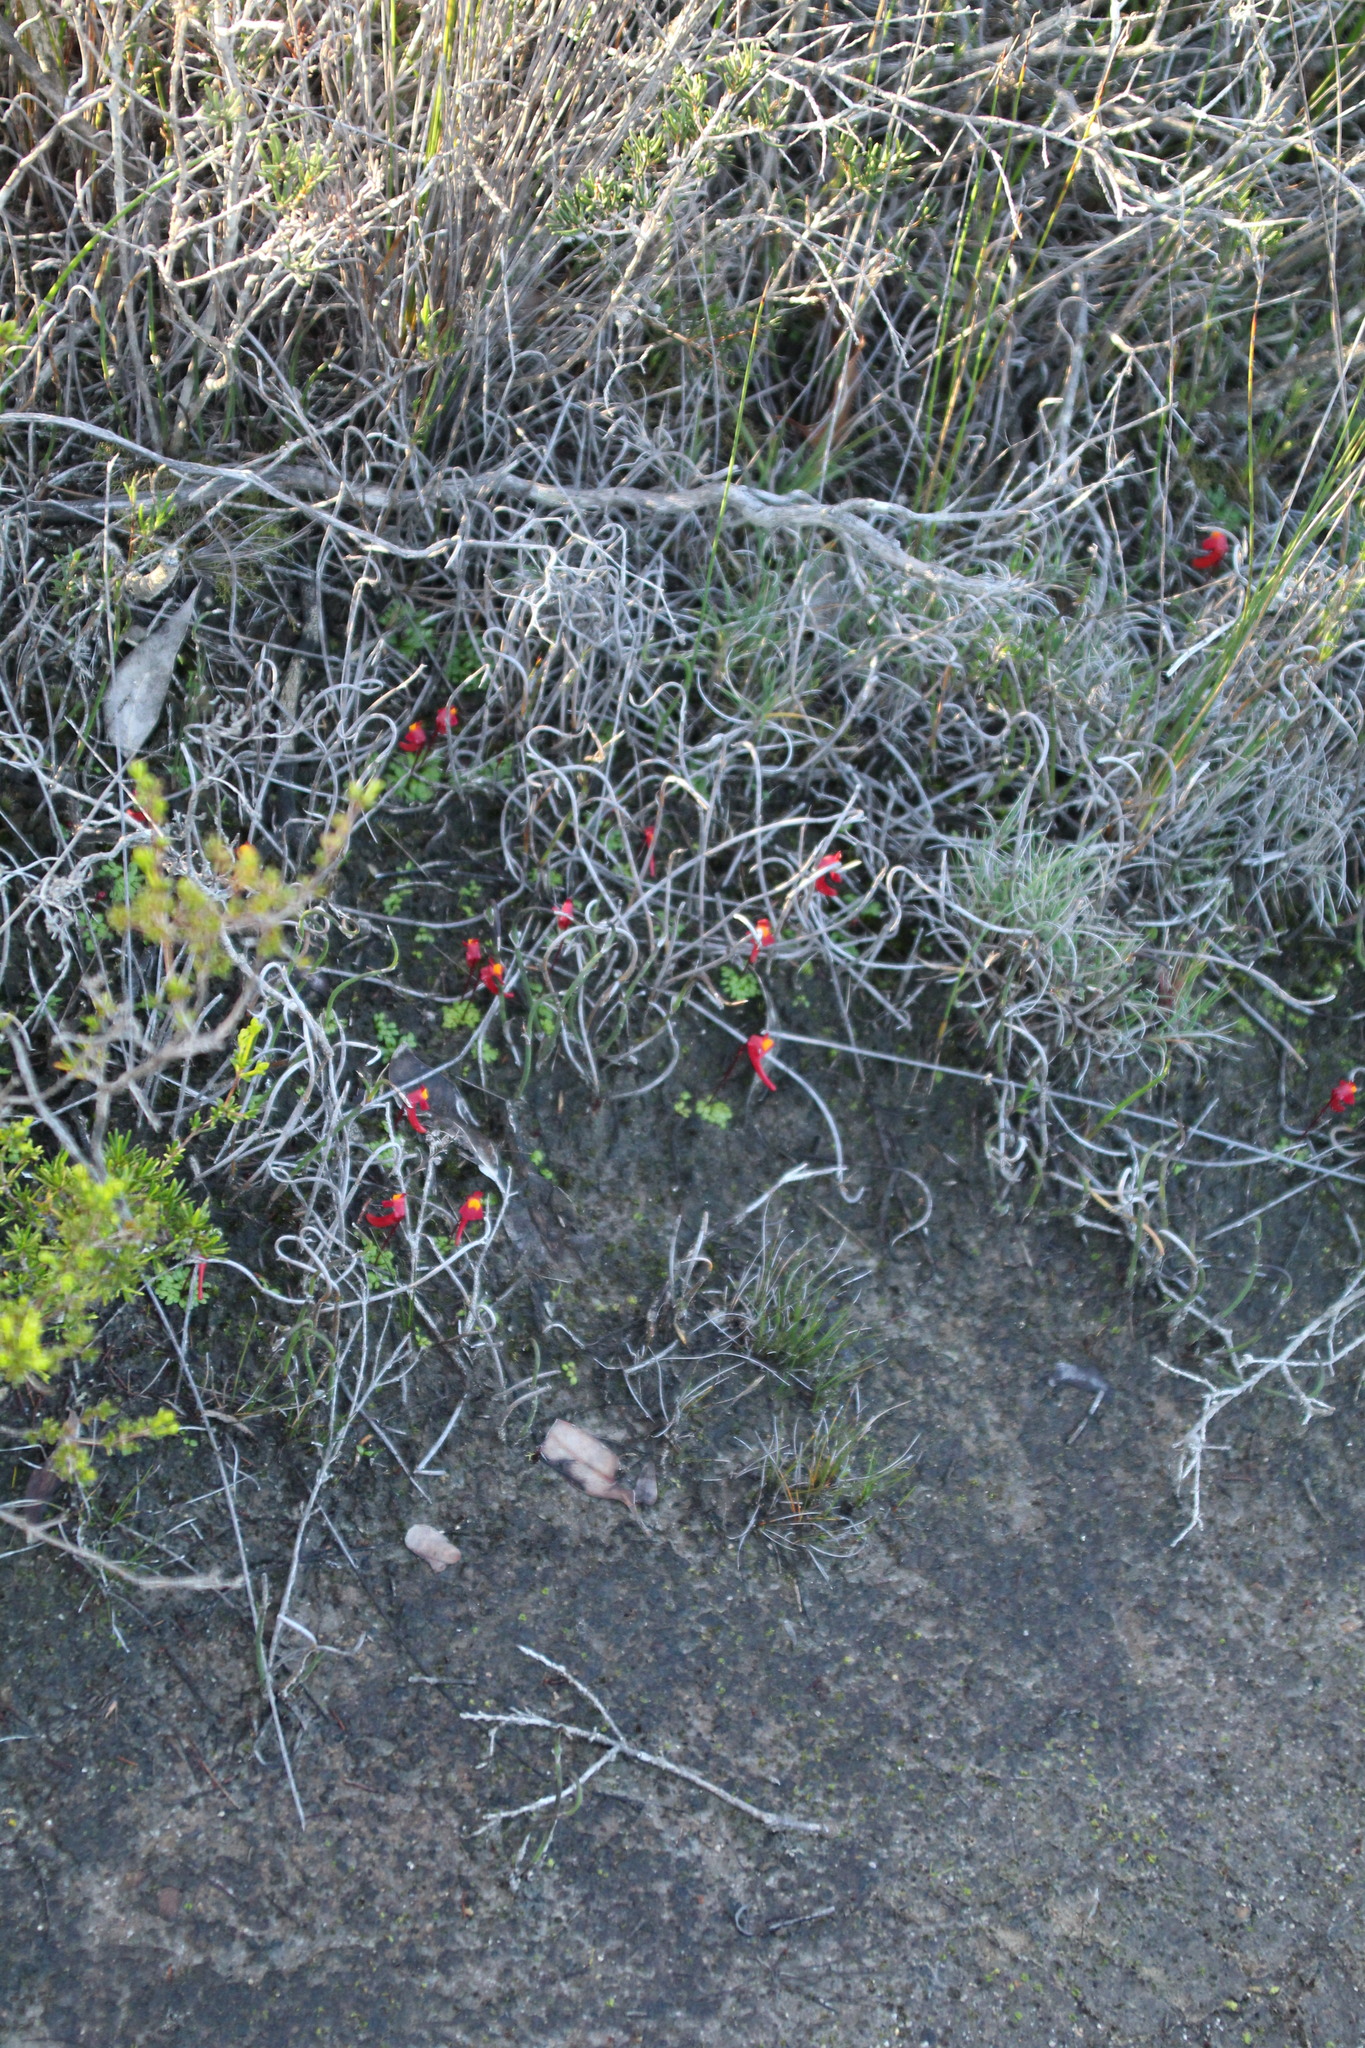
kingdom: Plantae
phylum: Tracheophyta
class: Magnoliopsida
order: Lamiales
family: Lentibulariaceae
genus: Utricularia
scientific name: Utricularia menziesii
